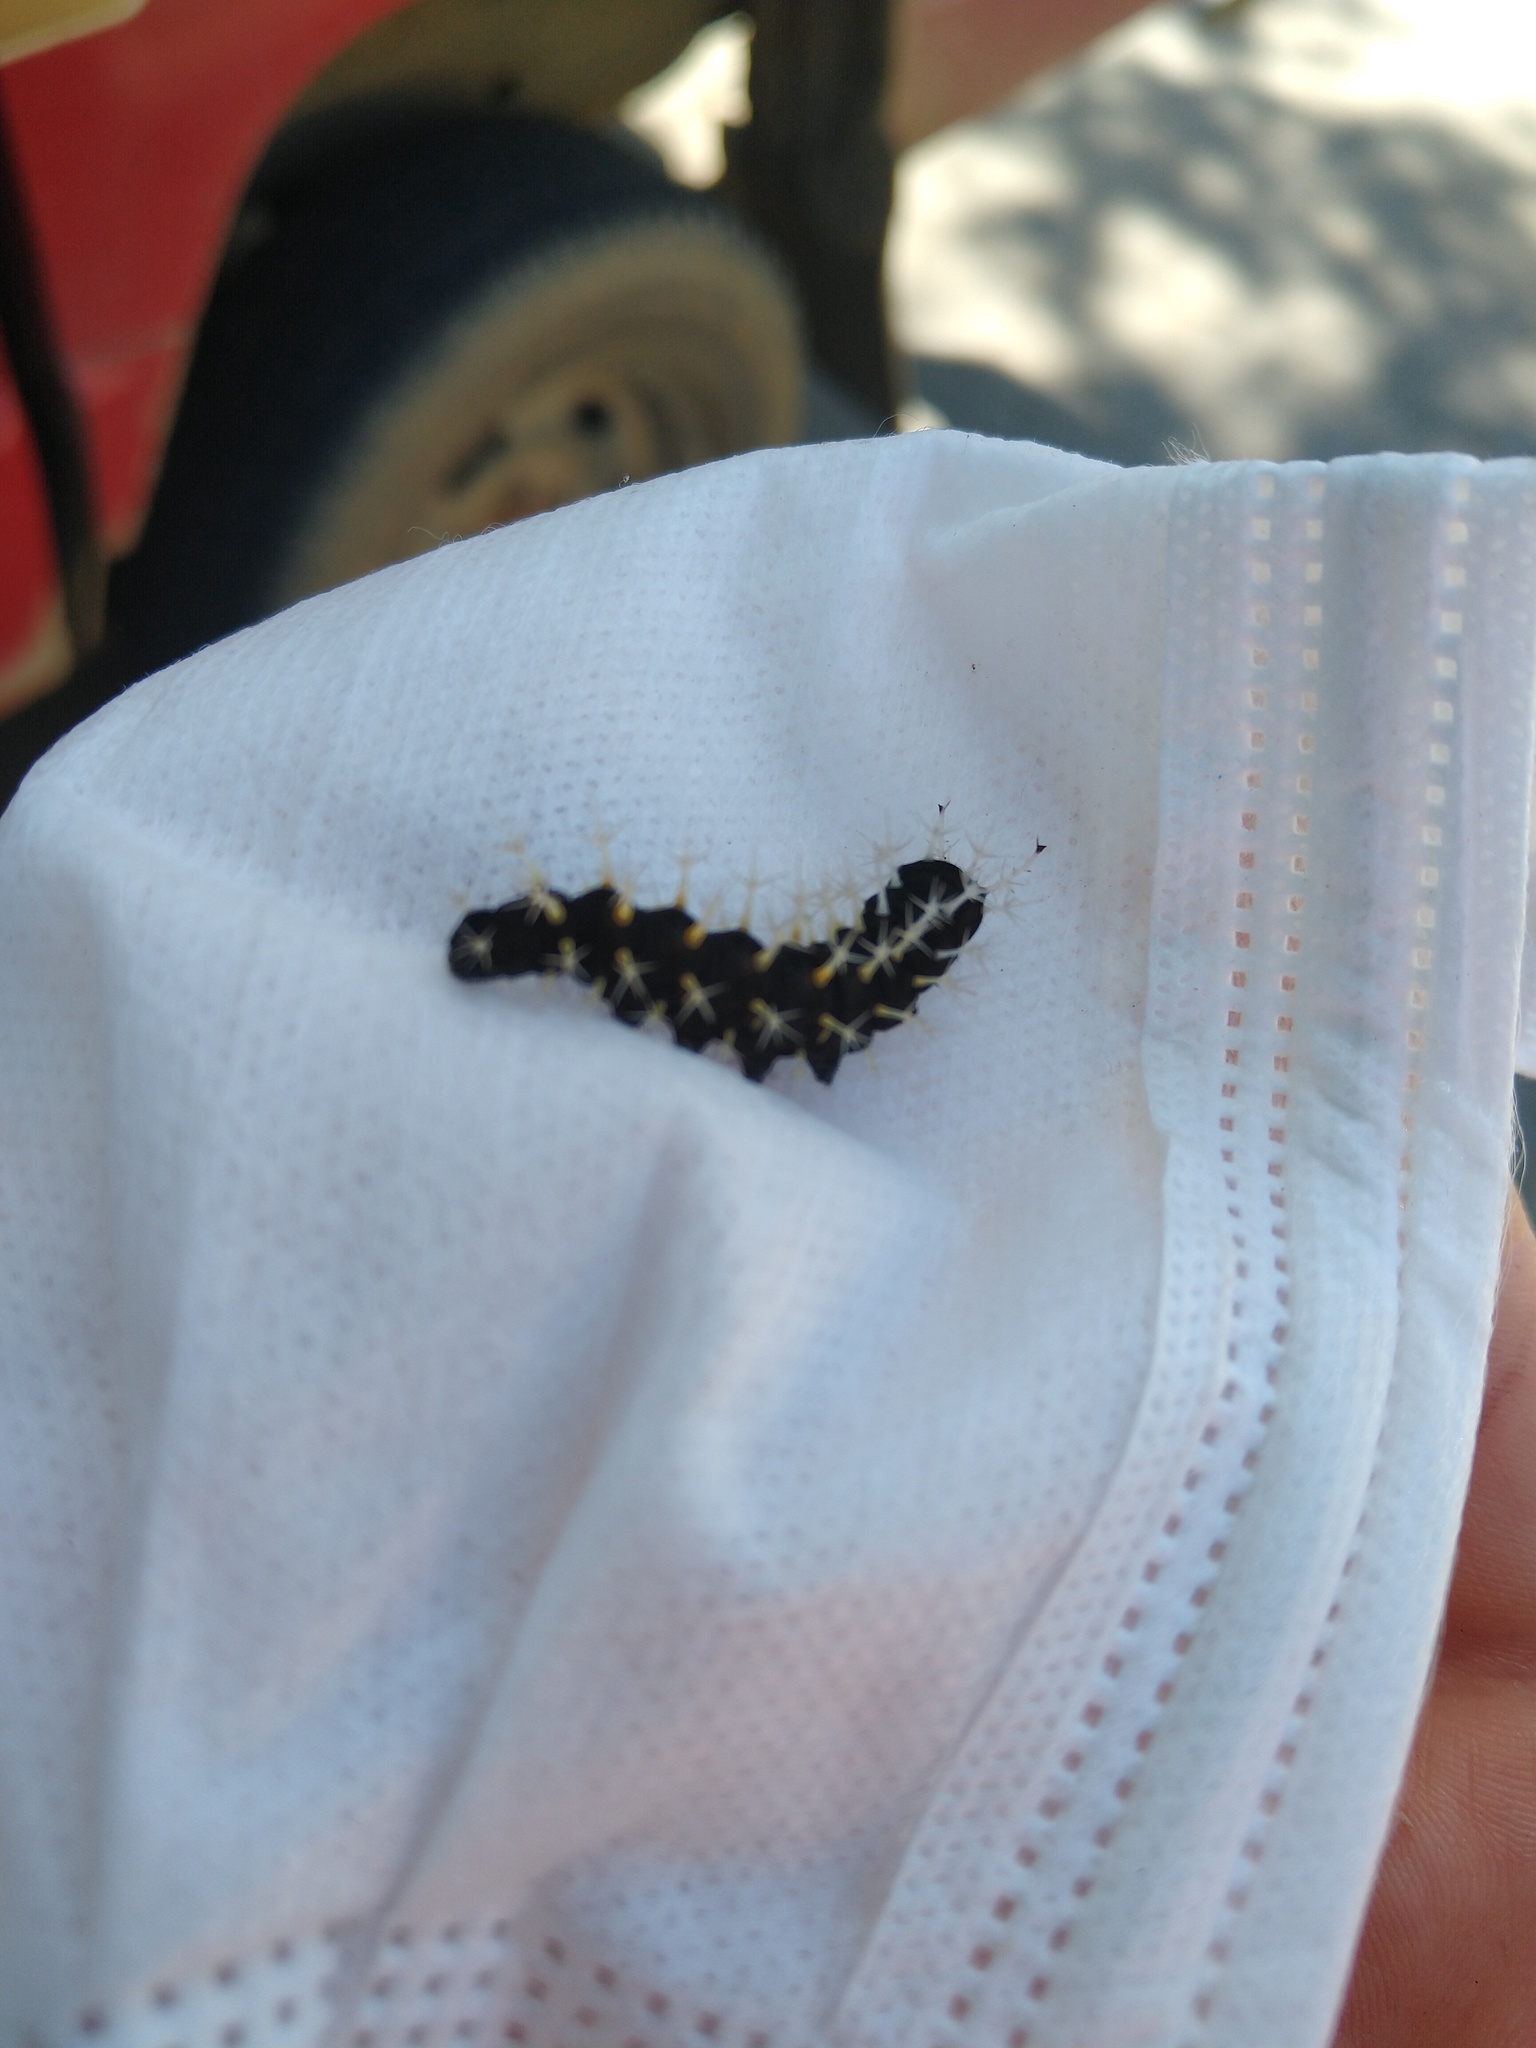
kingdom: Animalia
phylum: Arthropoda
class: Insecta
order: Lepidoptera
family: Nymphalidae
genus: Colobura
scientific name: Colobura dirce
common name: Dirce beauty
